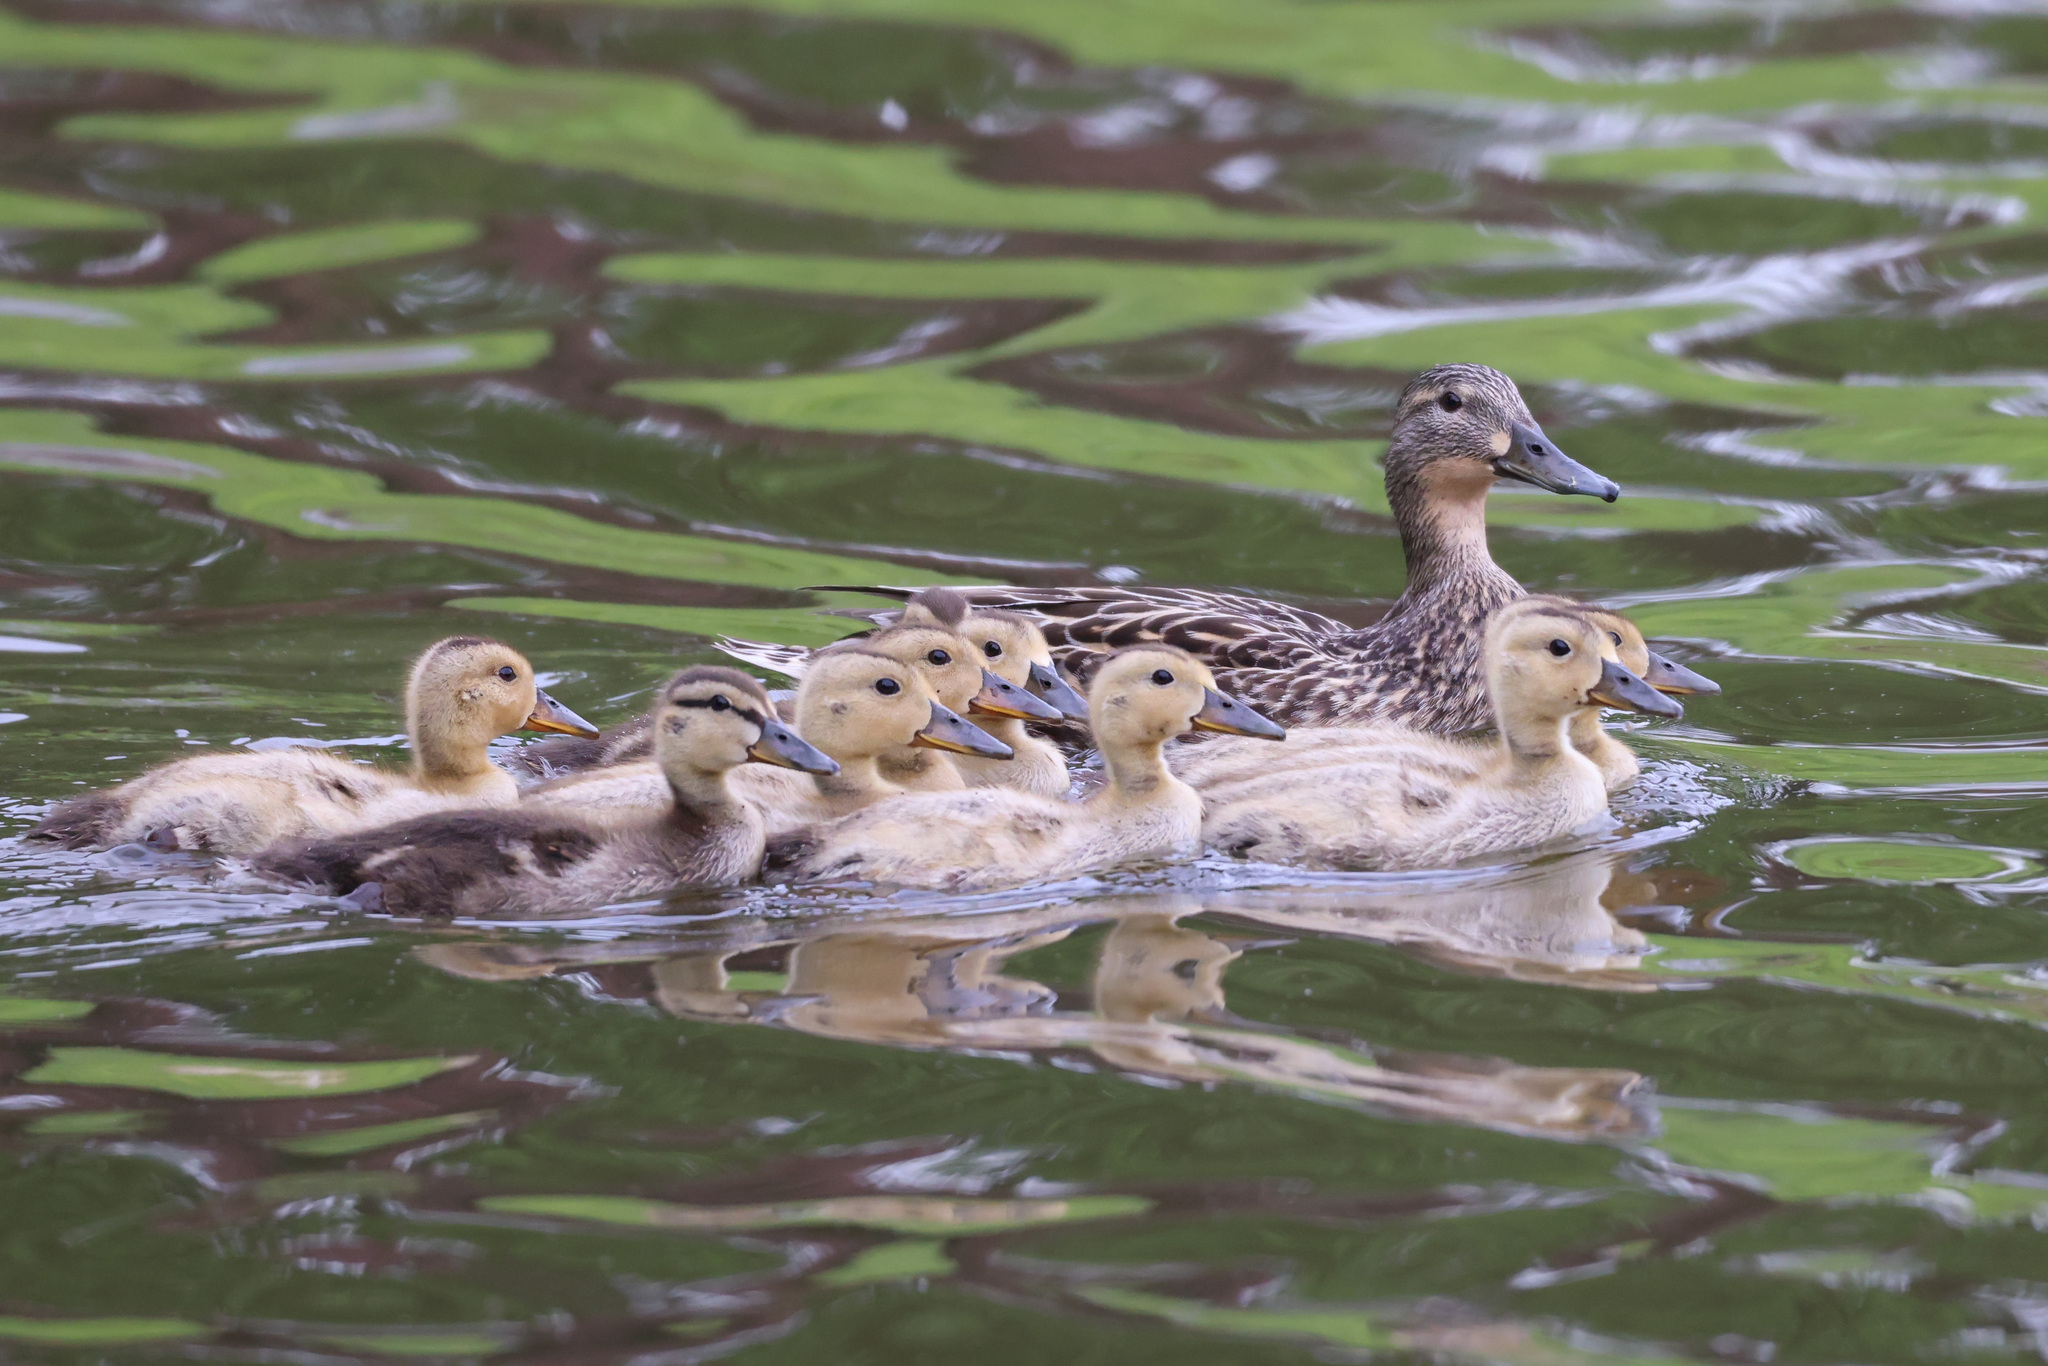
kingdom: Animalia
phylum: Chordata
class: Aves
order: Anseriformes
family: Anatidae
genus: Anas
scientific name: Anas platyrhynchos
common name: Mallard
